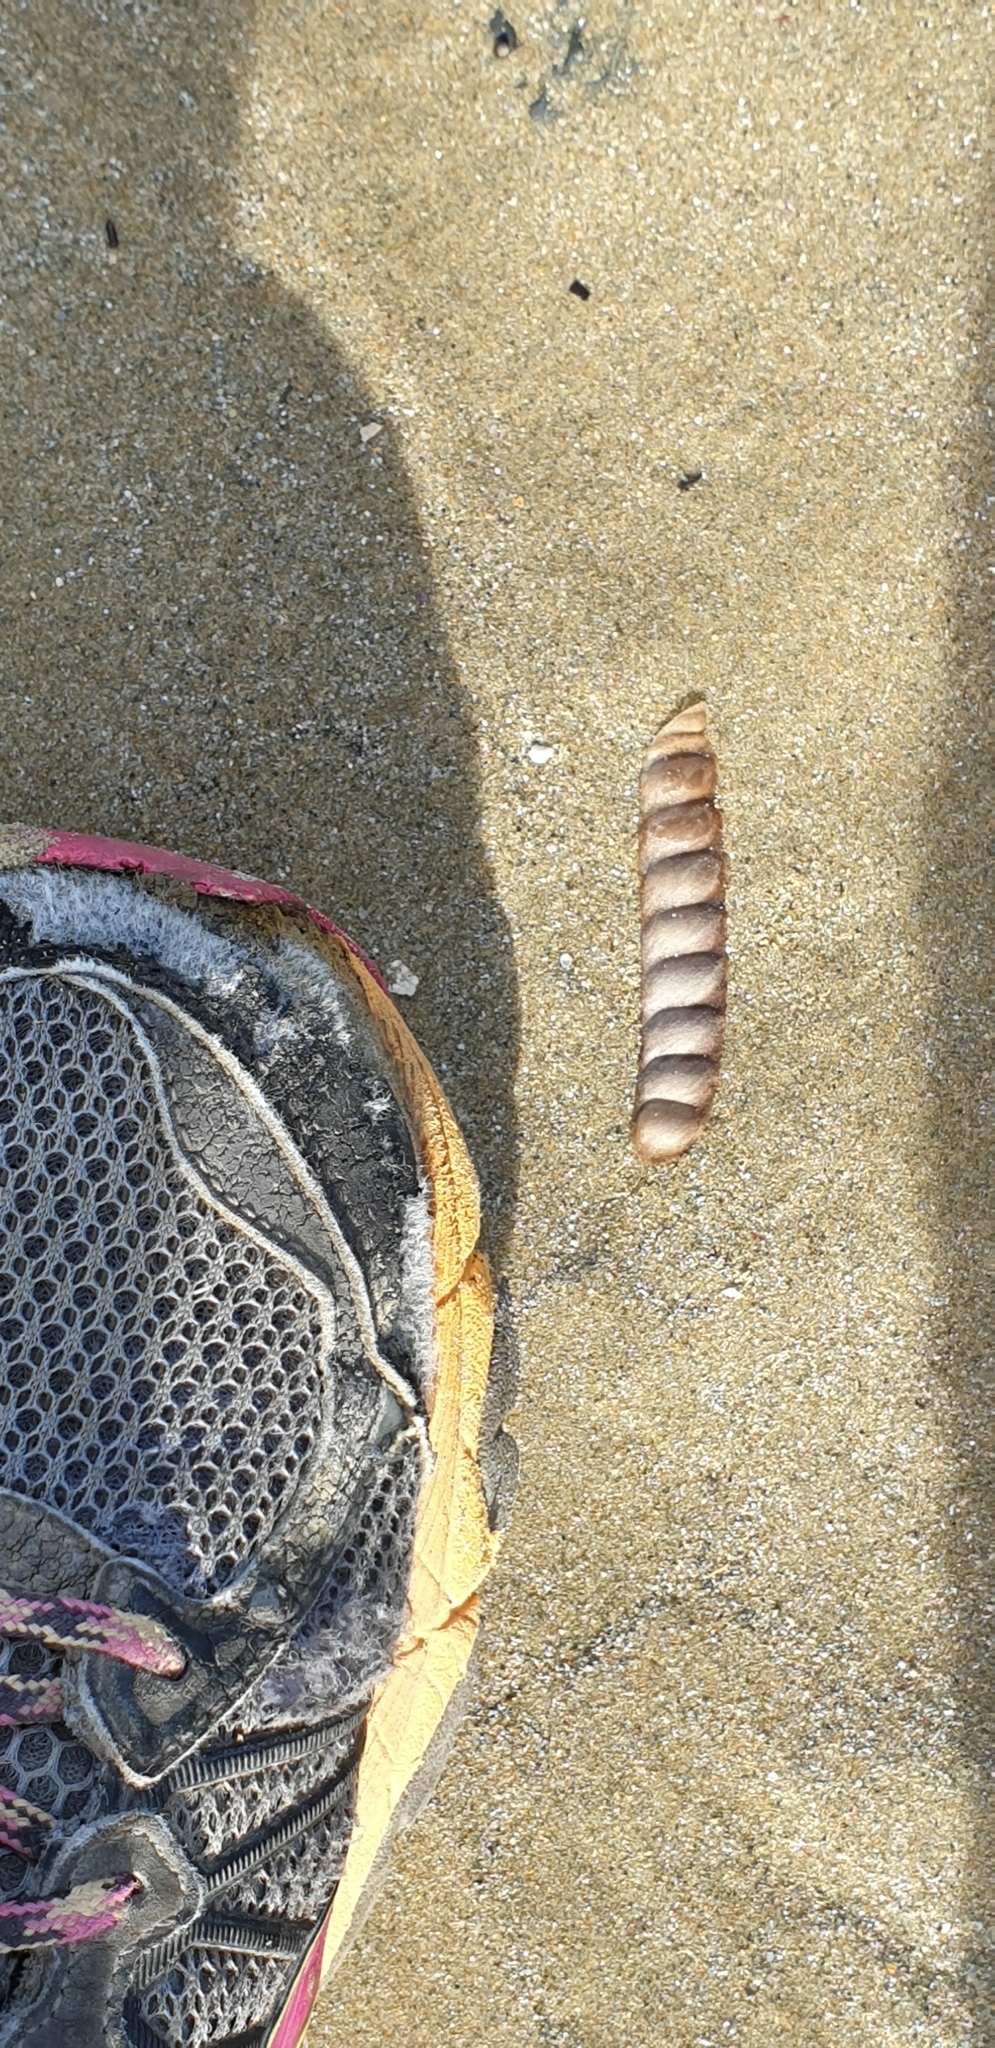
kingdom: Plantae
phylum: Tracheophyta
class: Magnoliopsida
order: Fabales
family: Fabaceae
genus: Lupinus
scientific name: Lupinus arboreus
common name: Yellow bush lupine
